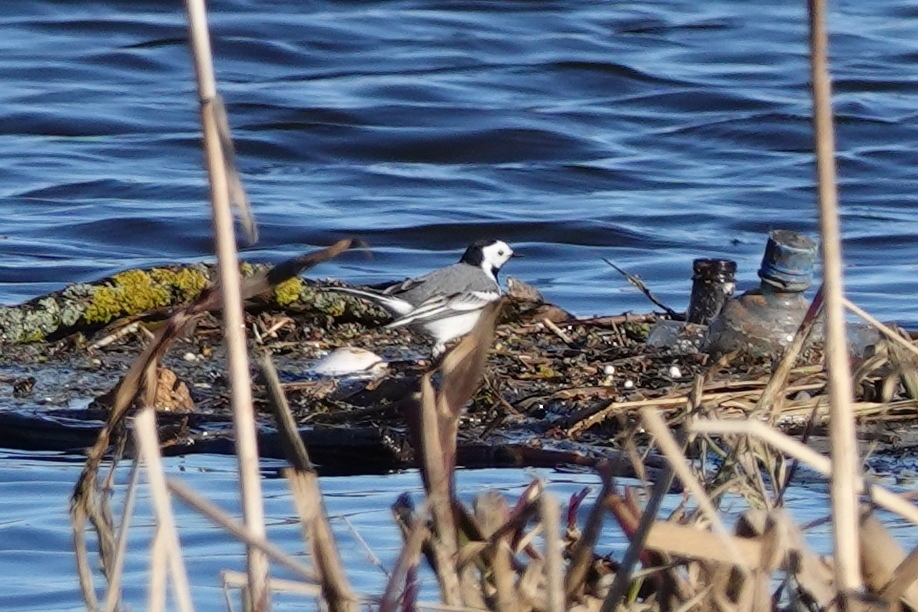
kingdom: Animalia
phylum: Chordata
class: Aves
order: Passeriformes
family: Motacillidae
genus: Motacilla
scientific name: Motacilla alba
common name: White wagtail
